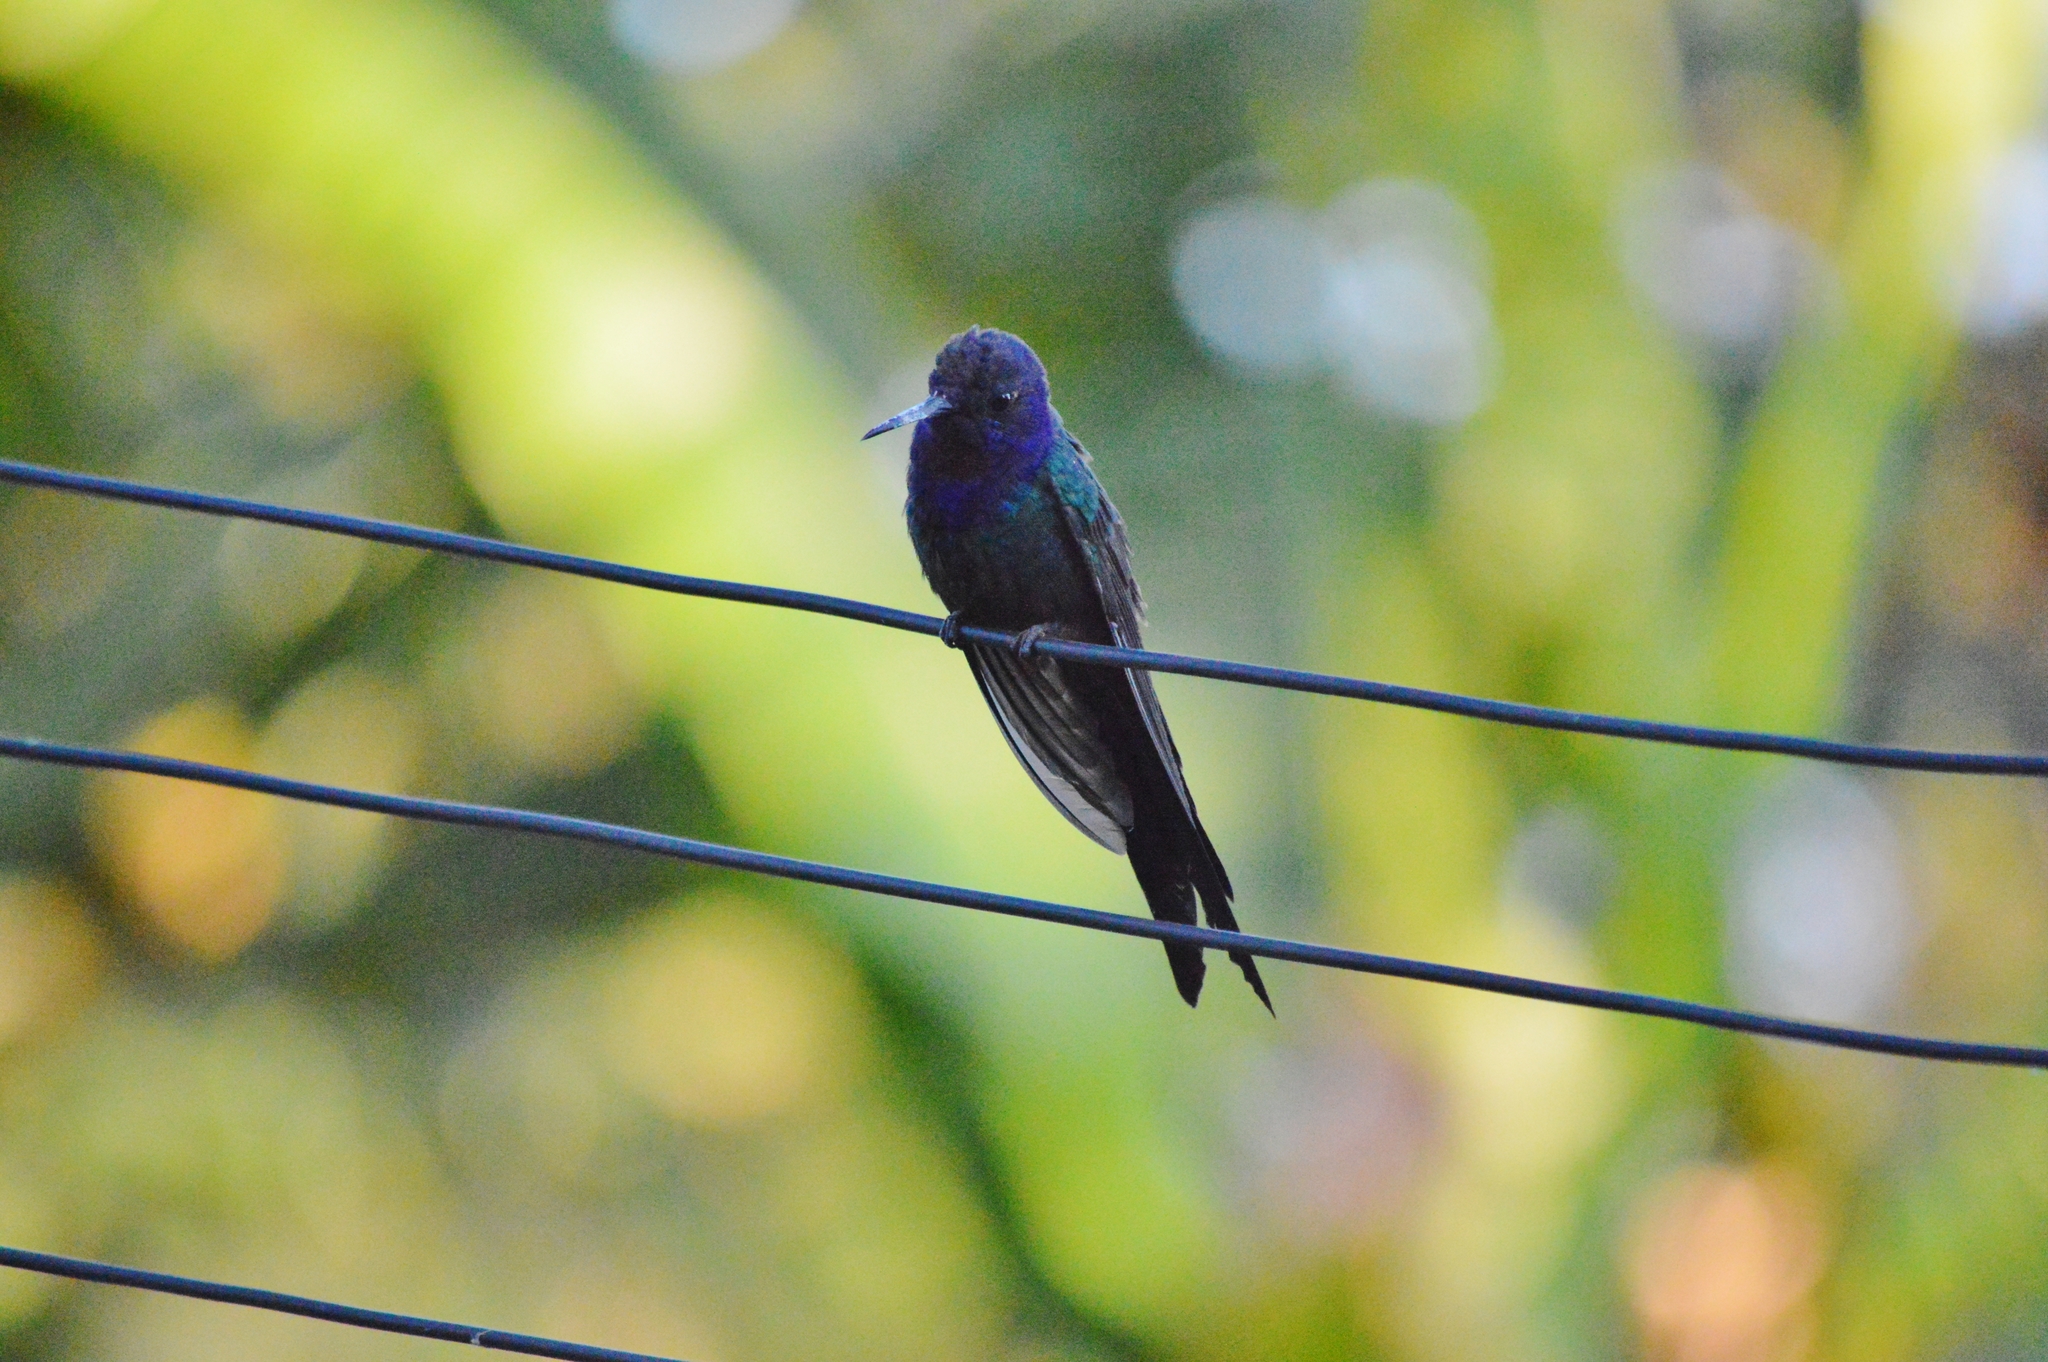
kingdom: Animalia
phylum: Chordata
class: Aves
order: Apodiformes
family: Trochilidae
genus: Eupetomena
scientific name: Eupetomena macroura
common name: Swallow-tailed hummingbird
